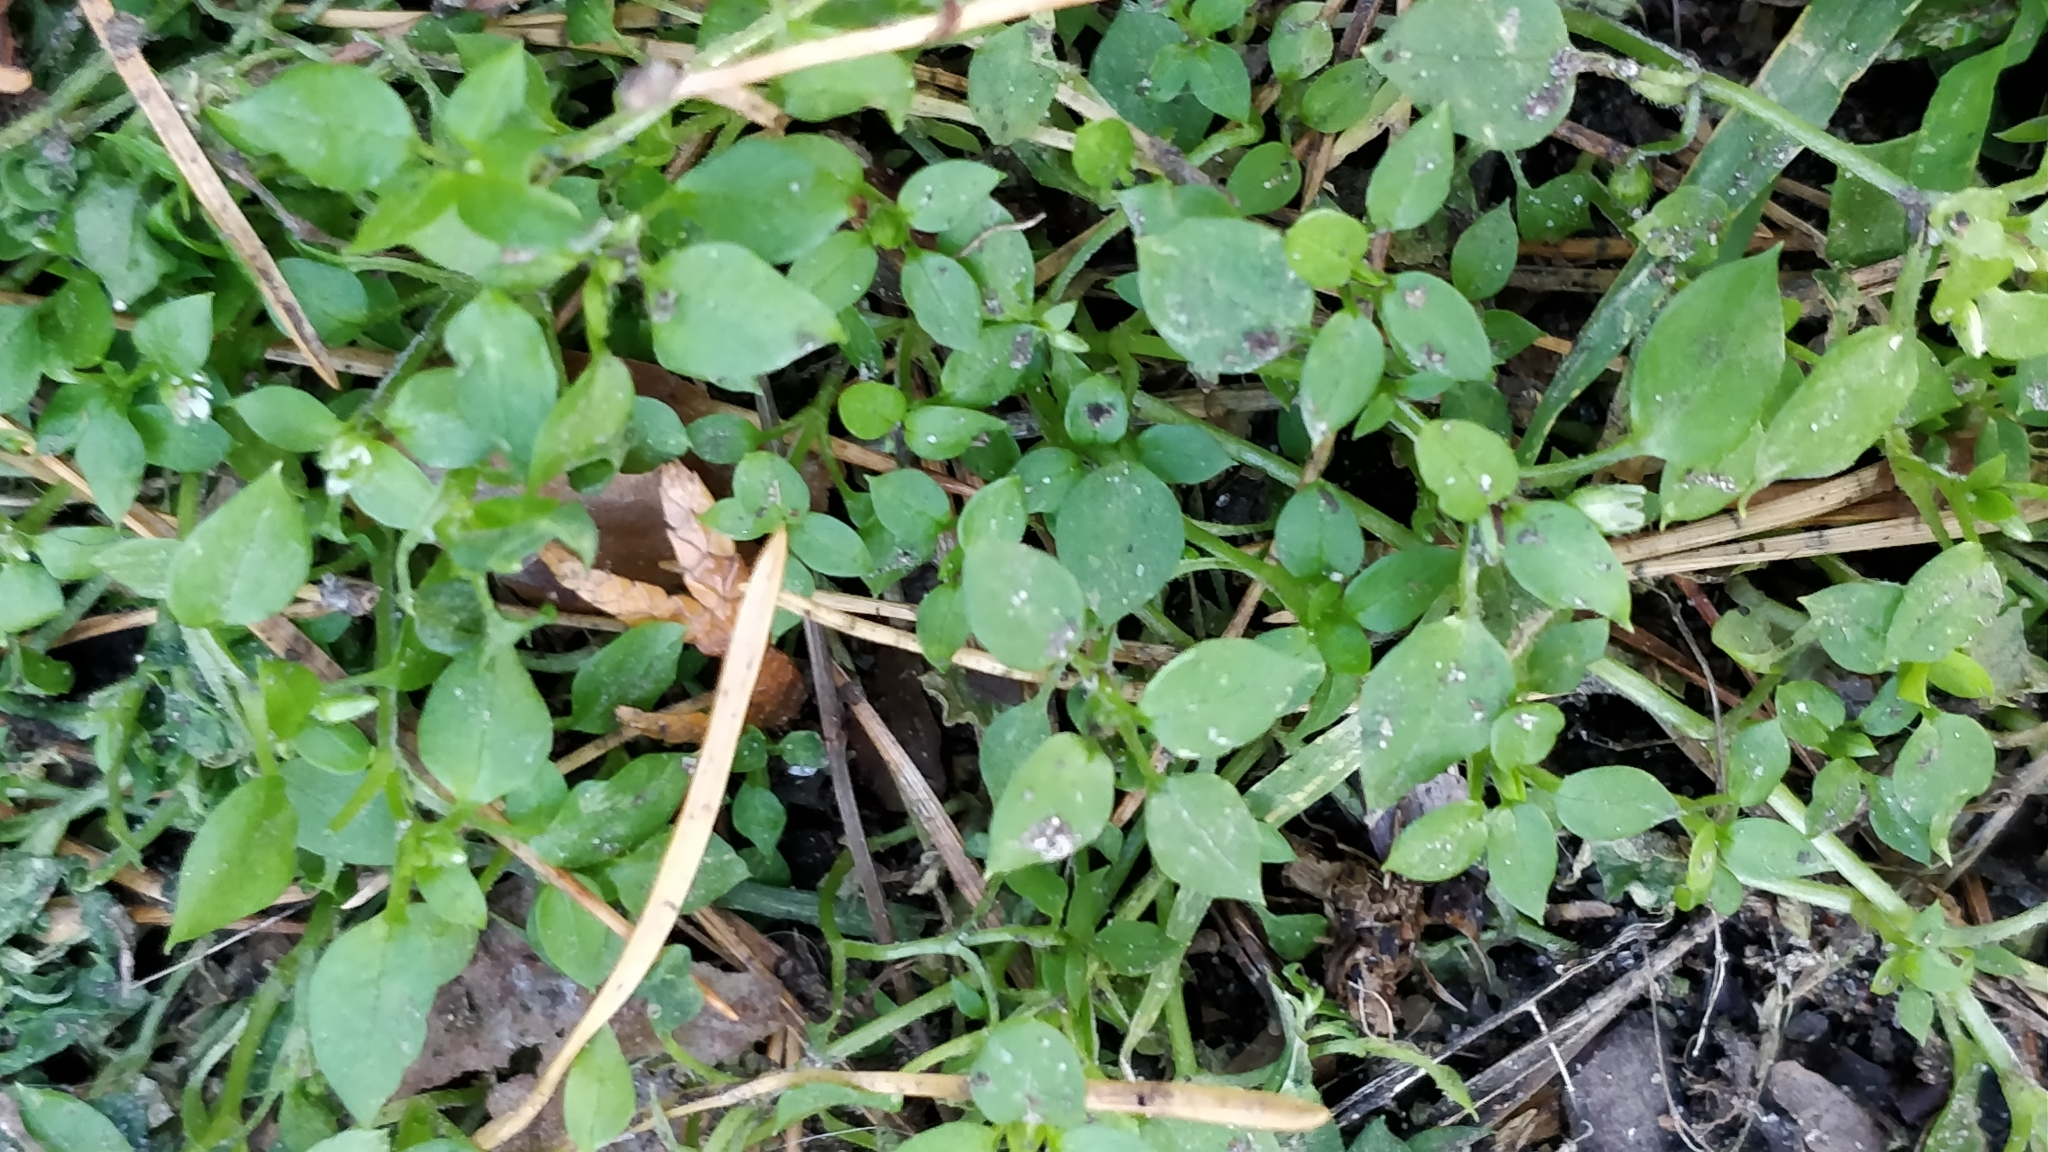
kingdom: Plantae
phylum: Tracheophyta
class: Magnoliopsida
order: Caryophyllales
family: Caryophyllaceae
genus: Stellaria
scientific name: Stellaria media
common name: Common chickweed
